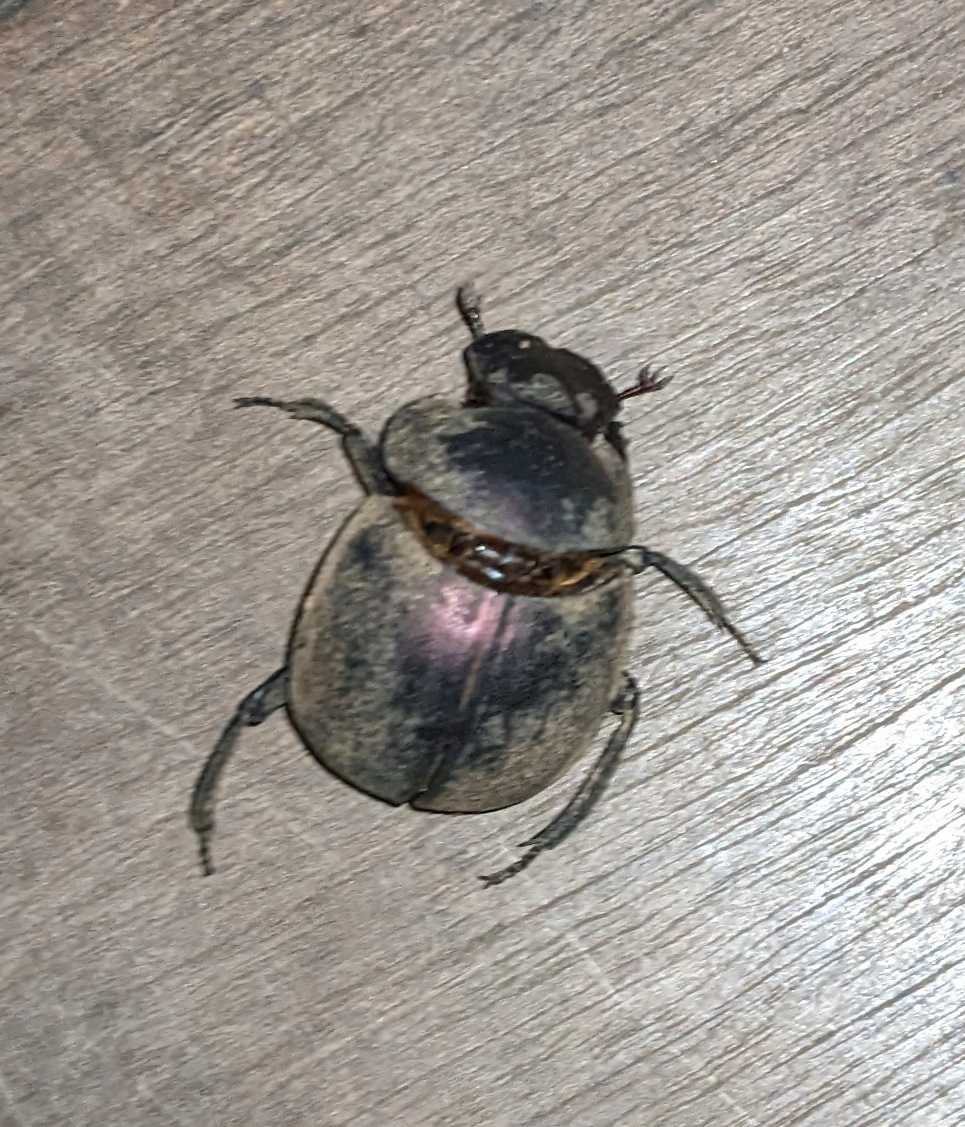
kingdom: Animalia
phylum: Arthropoda
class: Insecta
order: Coleoptera
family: Scarabaeidae
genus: Chalconotus
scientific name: Chalconotus convexus
